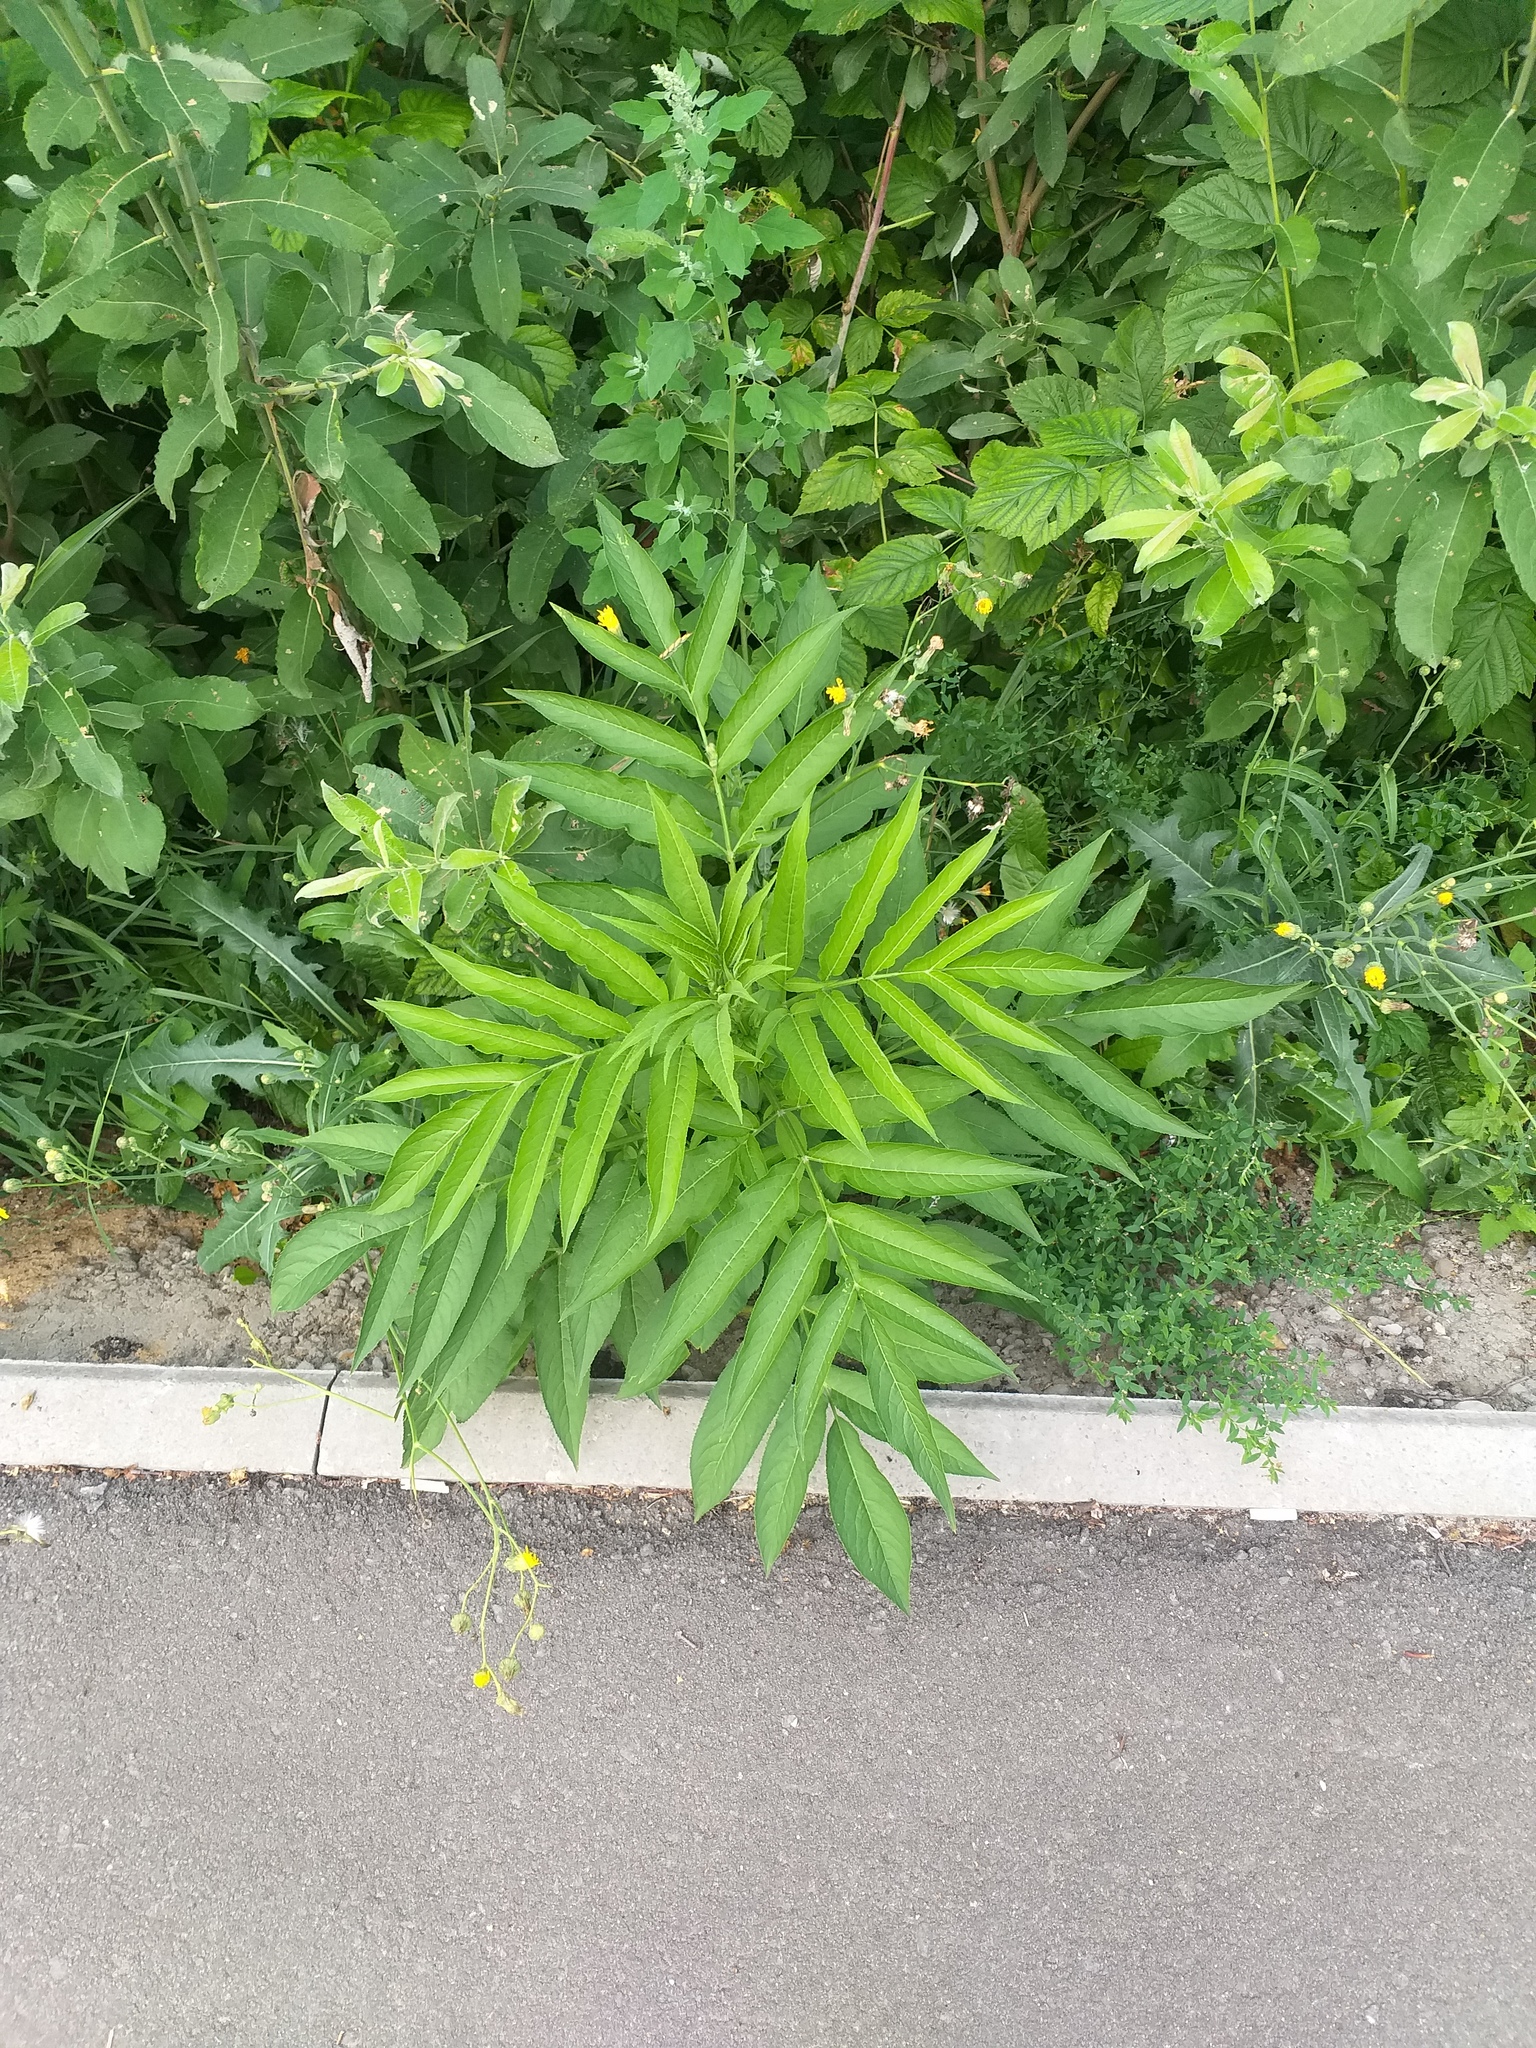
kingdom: Plantae
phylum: Tracheophyta
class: Magnoliopsida
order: Dipsacales
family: Viburnaceae
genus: Sambucus
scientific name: Sambucus ebulus
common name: Dwarf elder
